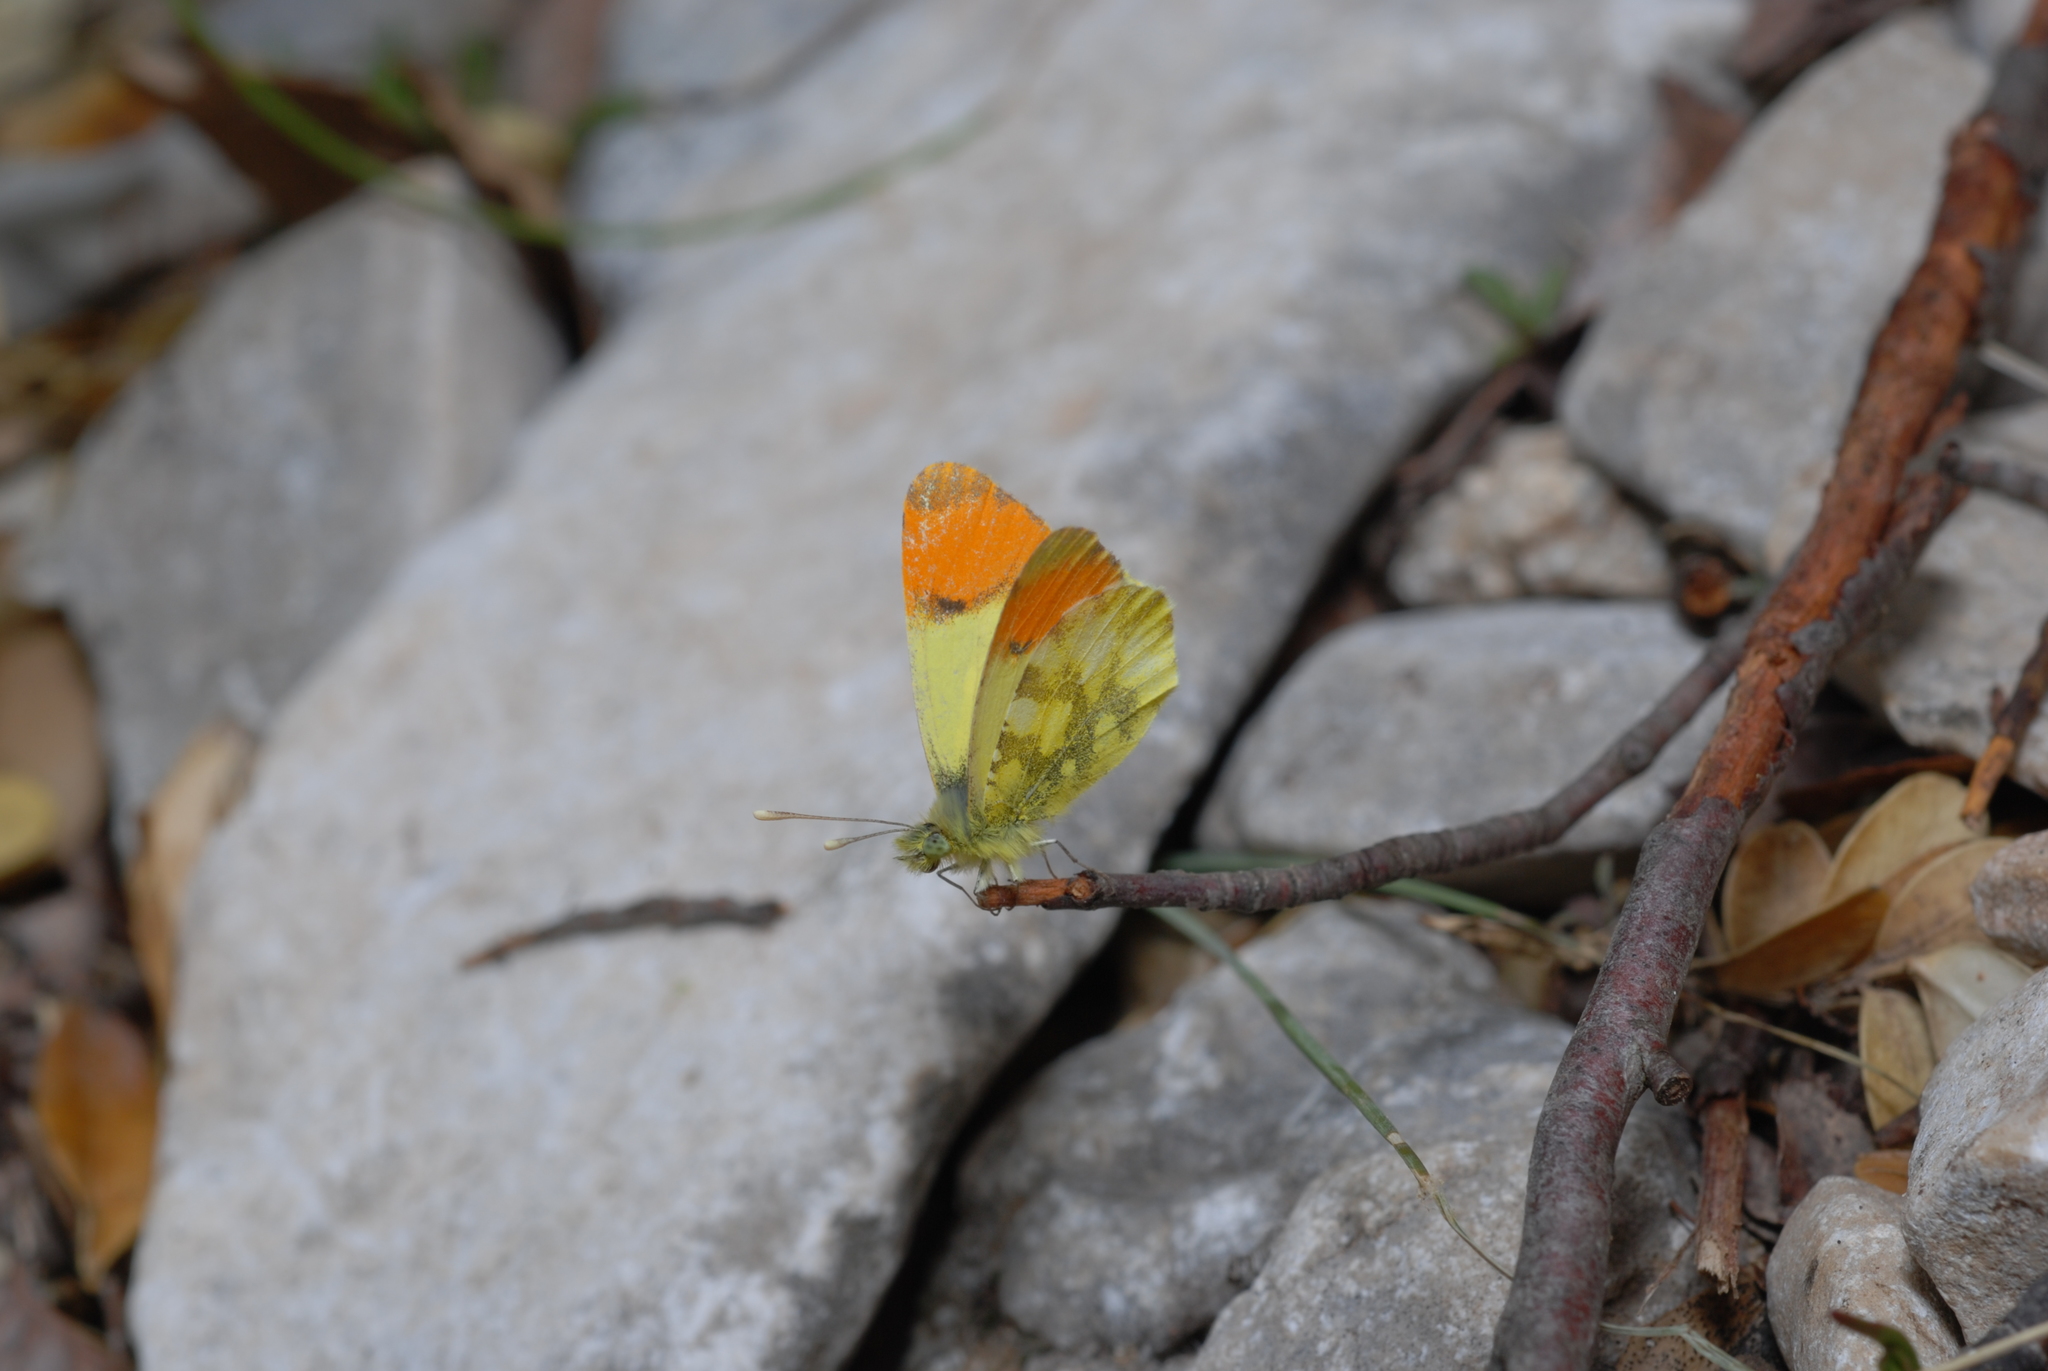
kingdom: Animalia
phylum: Arthropoda
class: Insecta
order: Lepidoptera
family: Pieridae
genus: Anthocharis
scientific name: Anthocharis euphenoides
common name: Provence orange-tip
